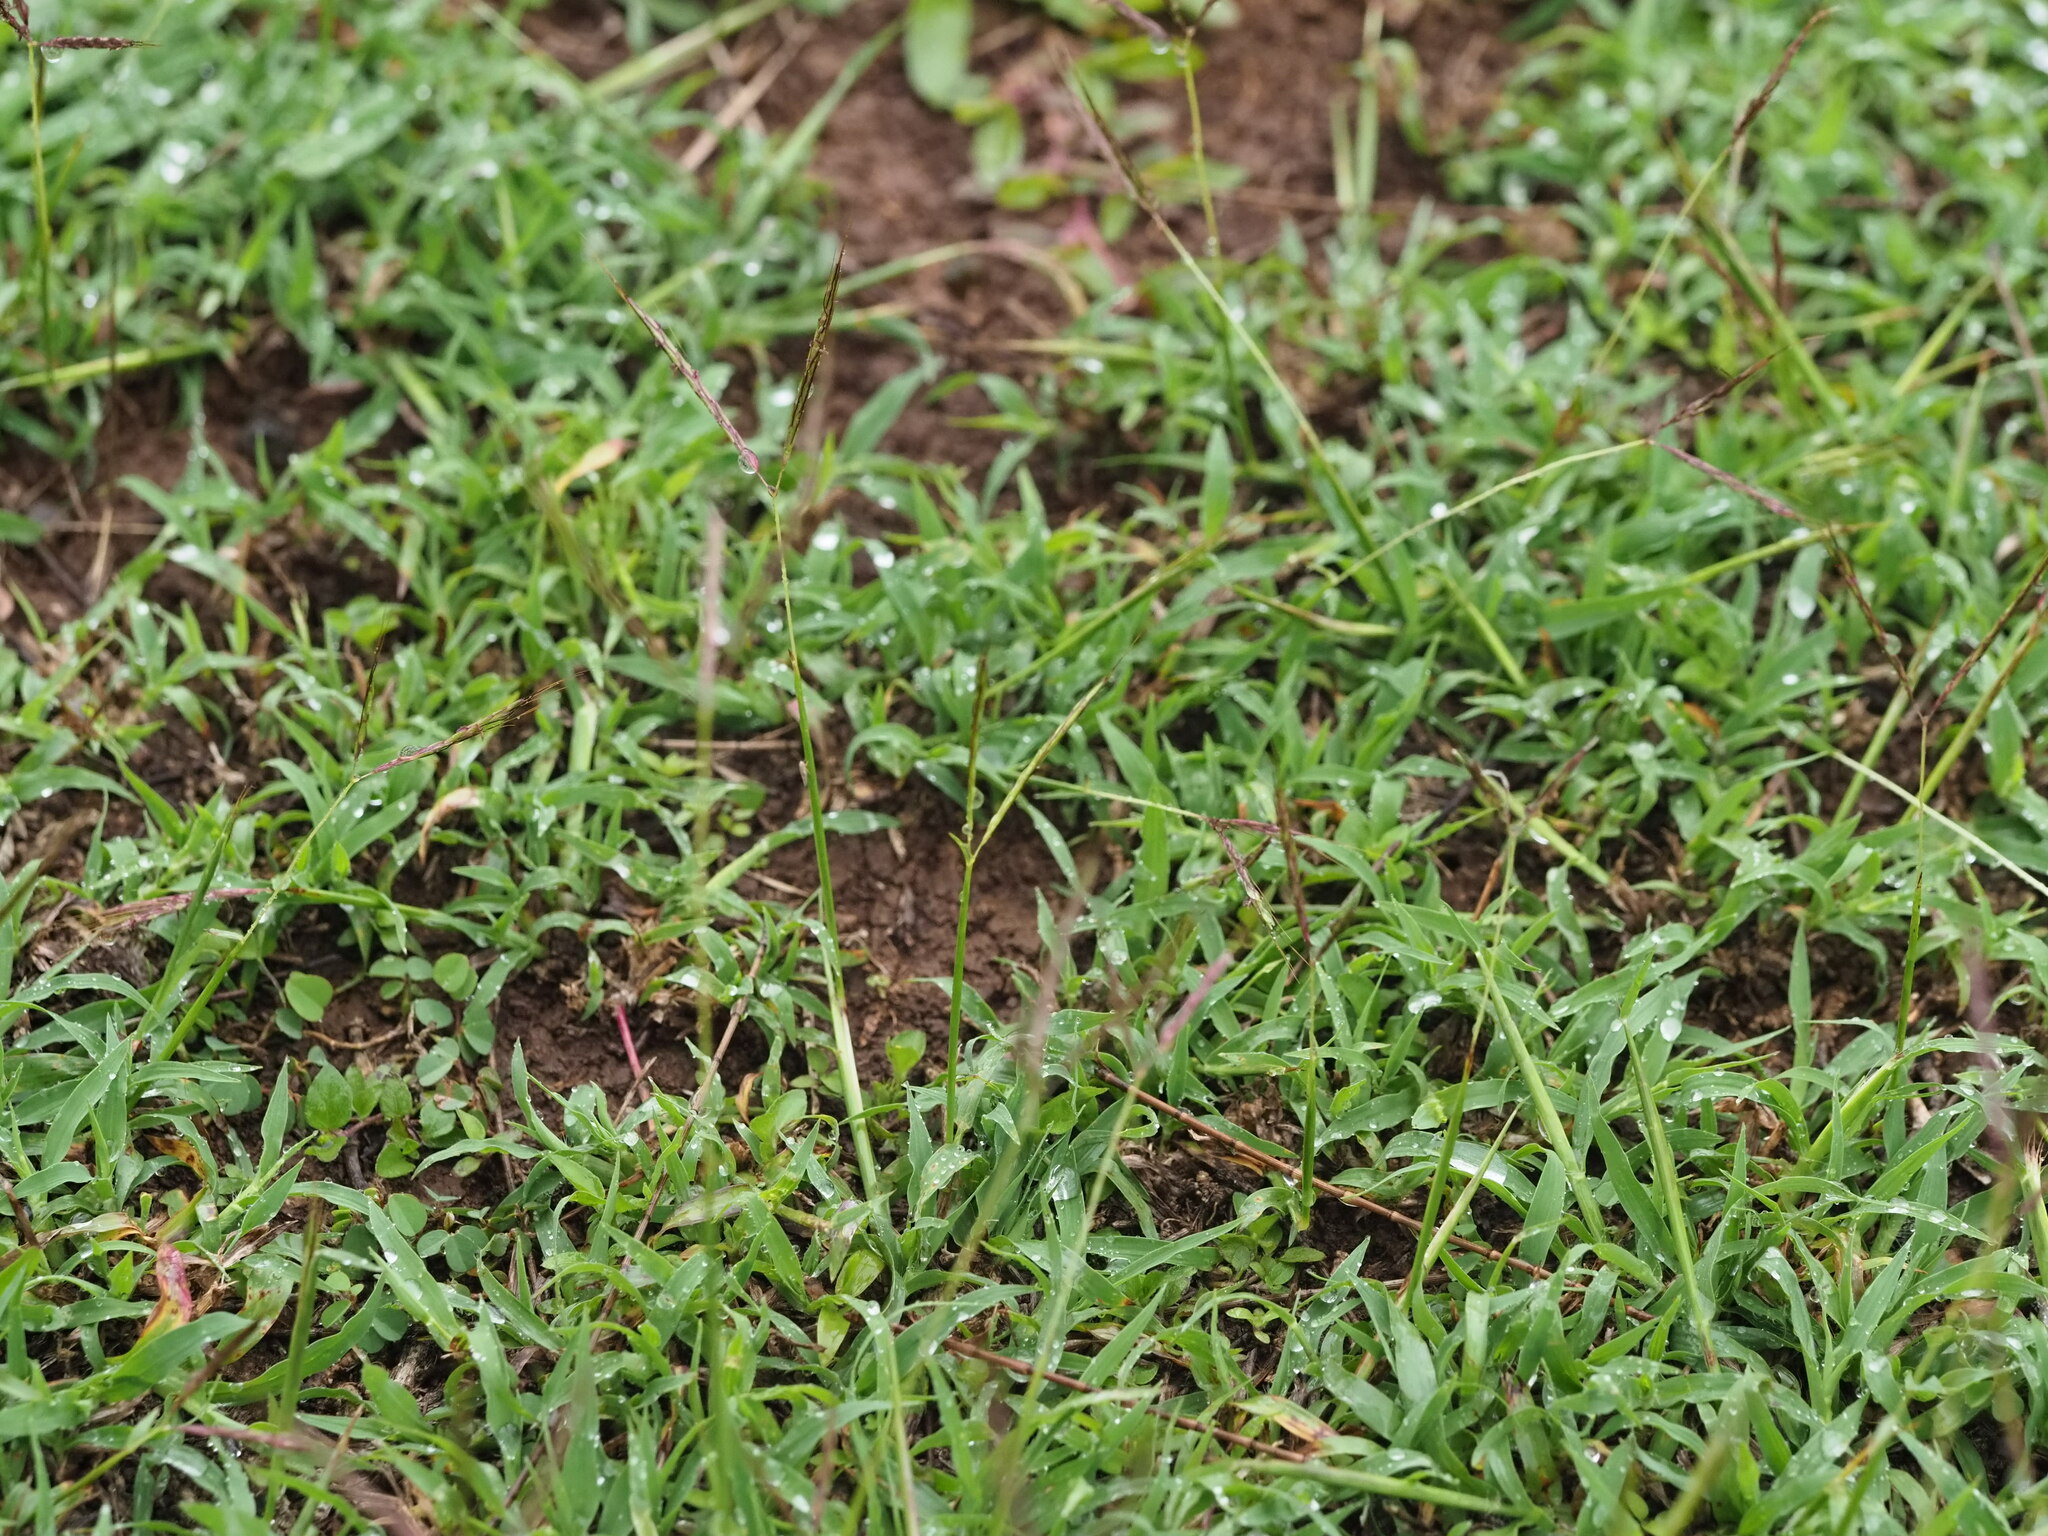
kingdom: Plantae
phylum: Tracheophyta
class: Liliopsida
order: Poales
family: Poaceae
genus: Bothriochloa
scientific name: Bothriochloa pertusa
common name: Pitted beardgrass
